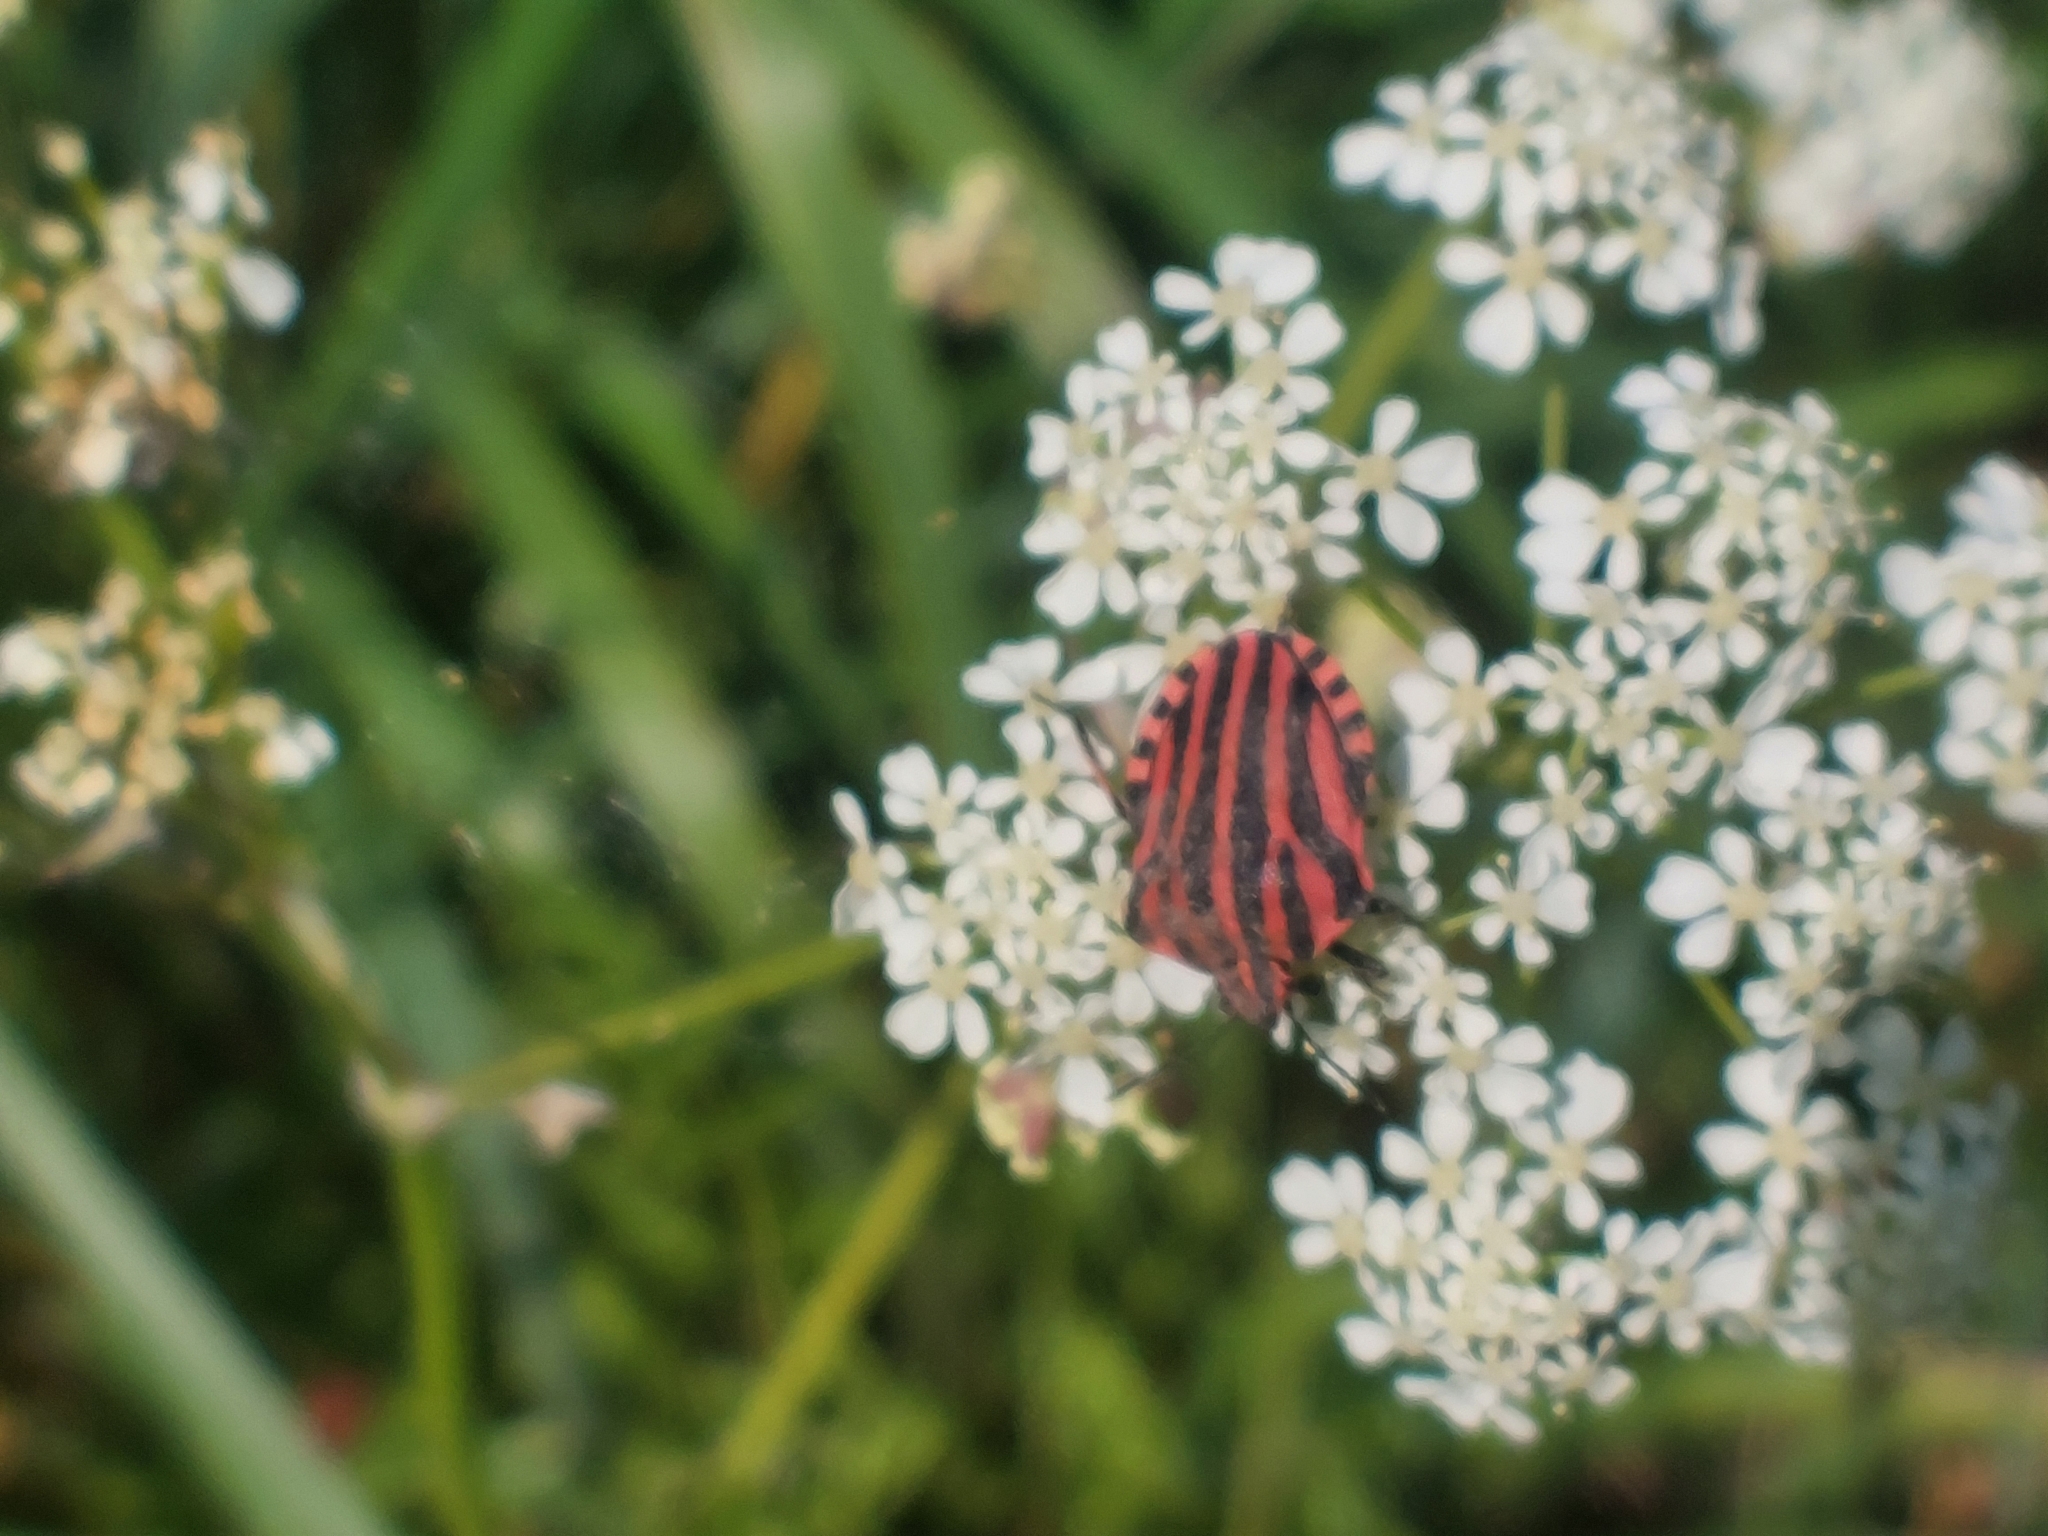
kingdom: Animalia
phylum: Arthropoda
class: Insecta
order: Hemiptera
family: Pentatomidae
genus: Graphosoma
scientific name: Graphosoma italicum
